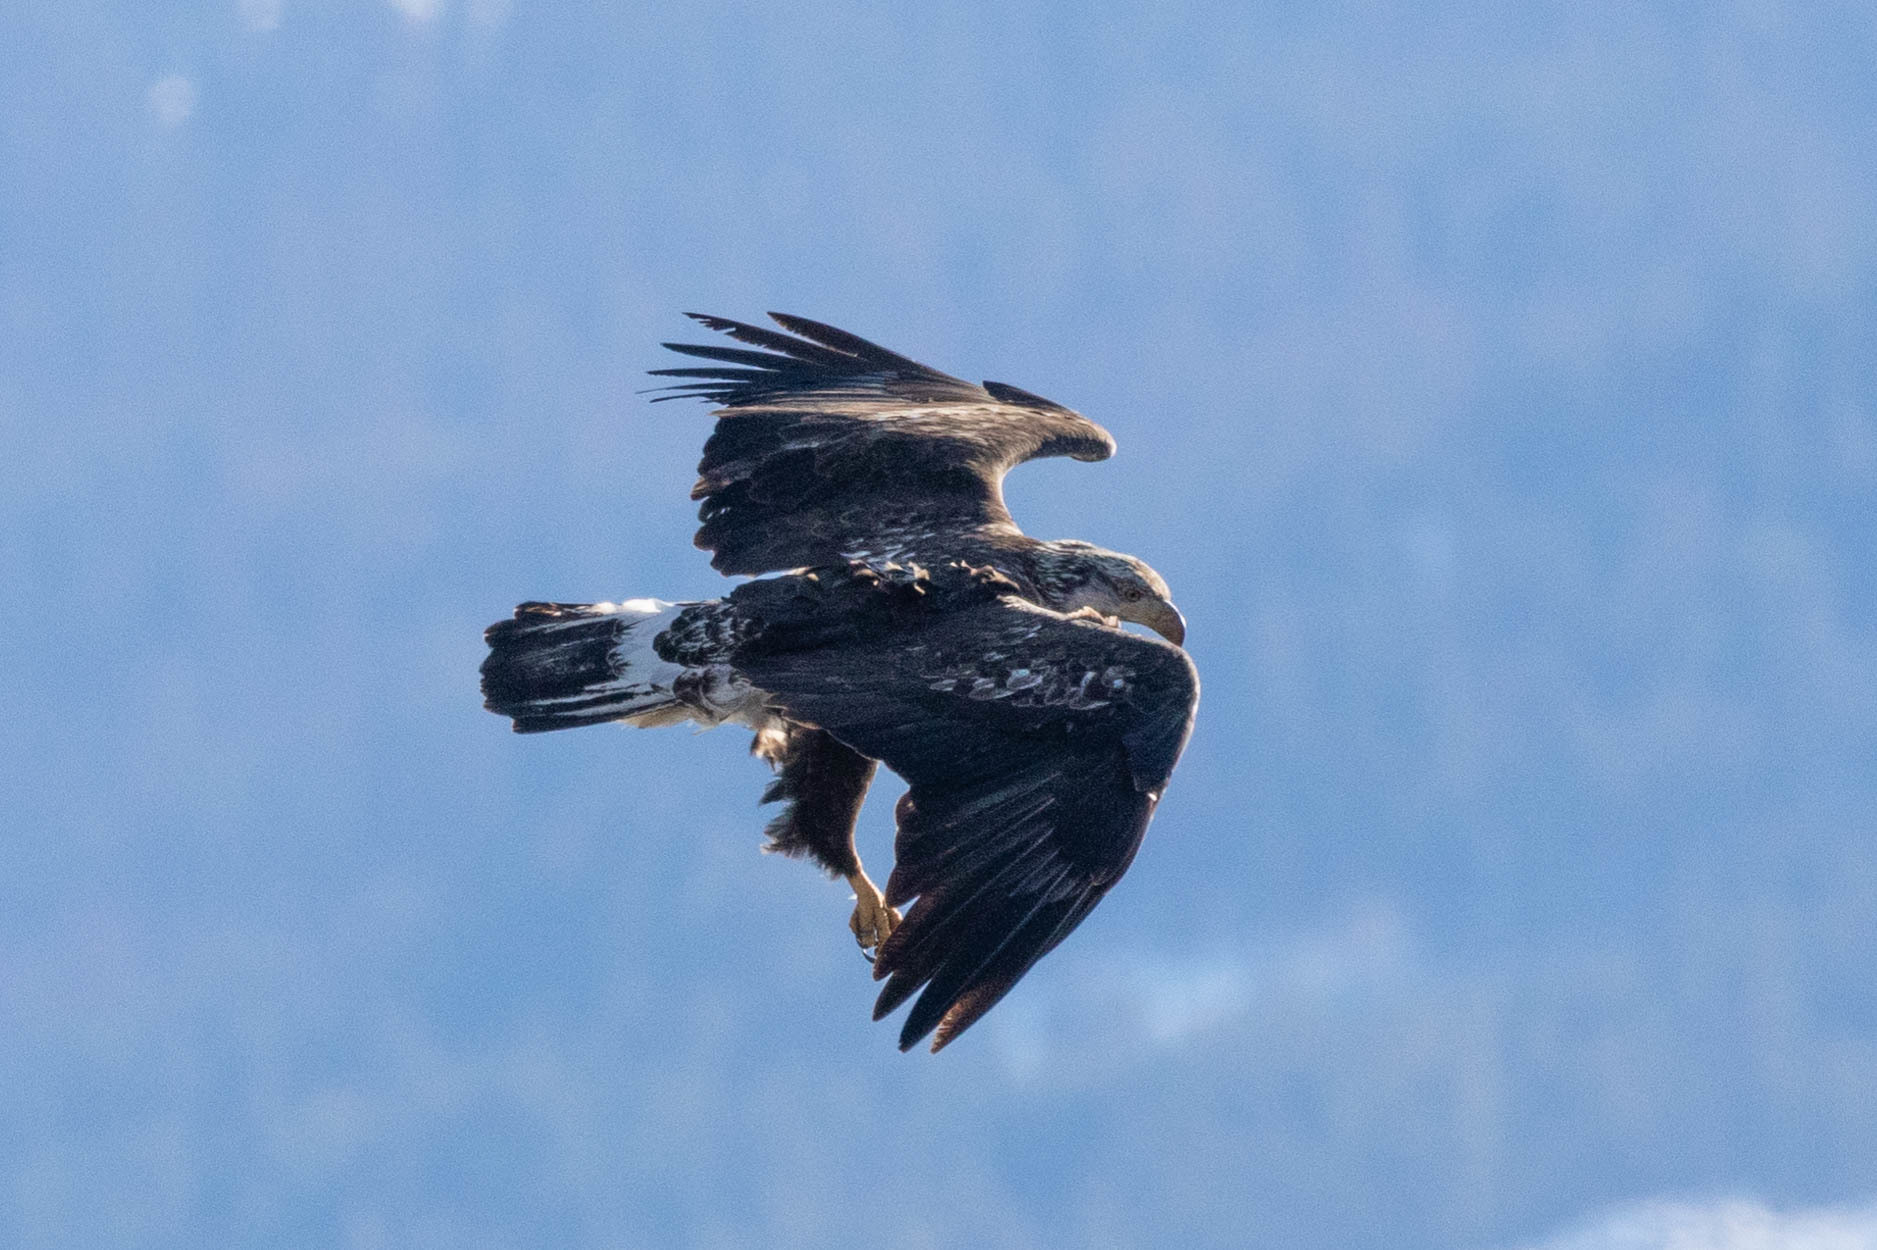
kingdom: Animalia
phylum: Chordata
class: Aves
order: Accipitriformes
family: Accipitridae
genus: Haliaeetus
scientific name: Haliaeetus leucocephalus
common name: Bald eagle
